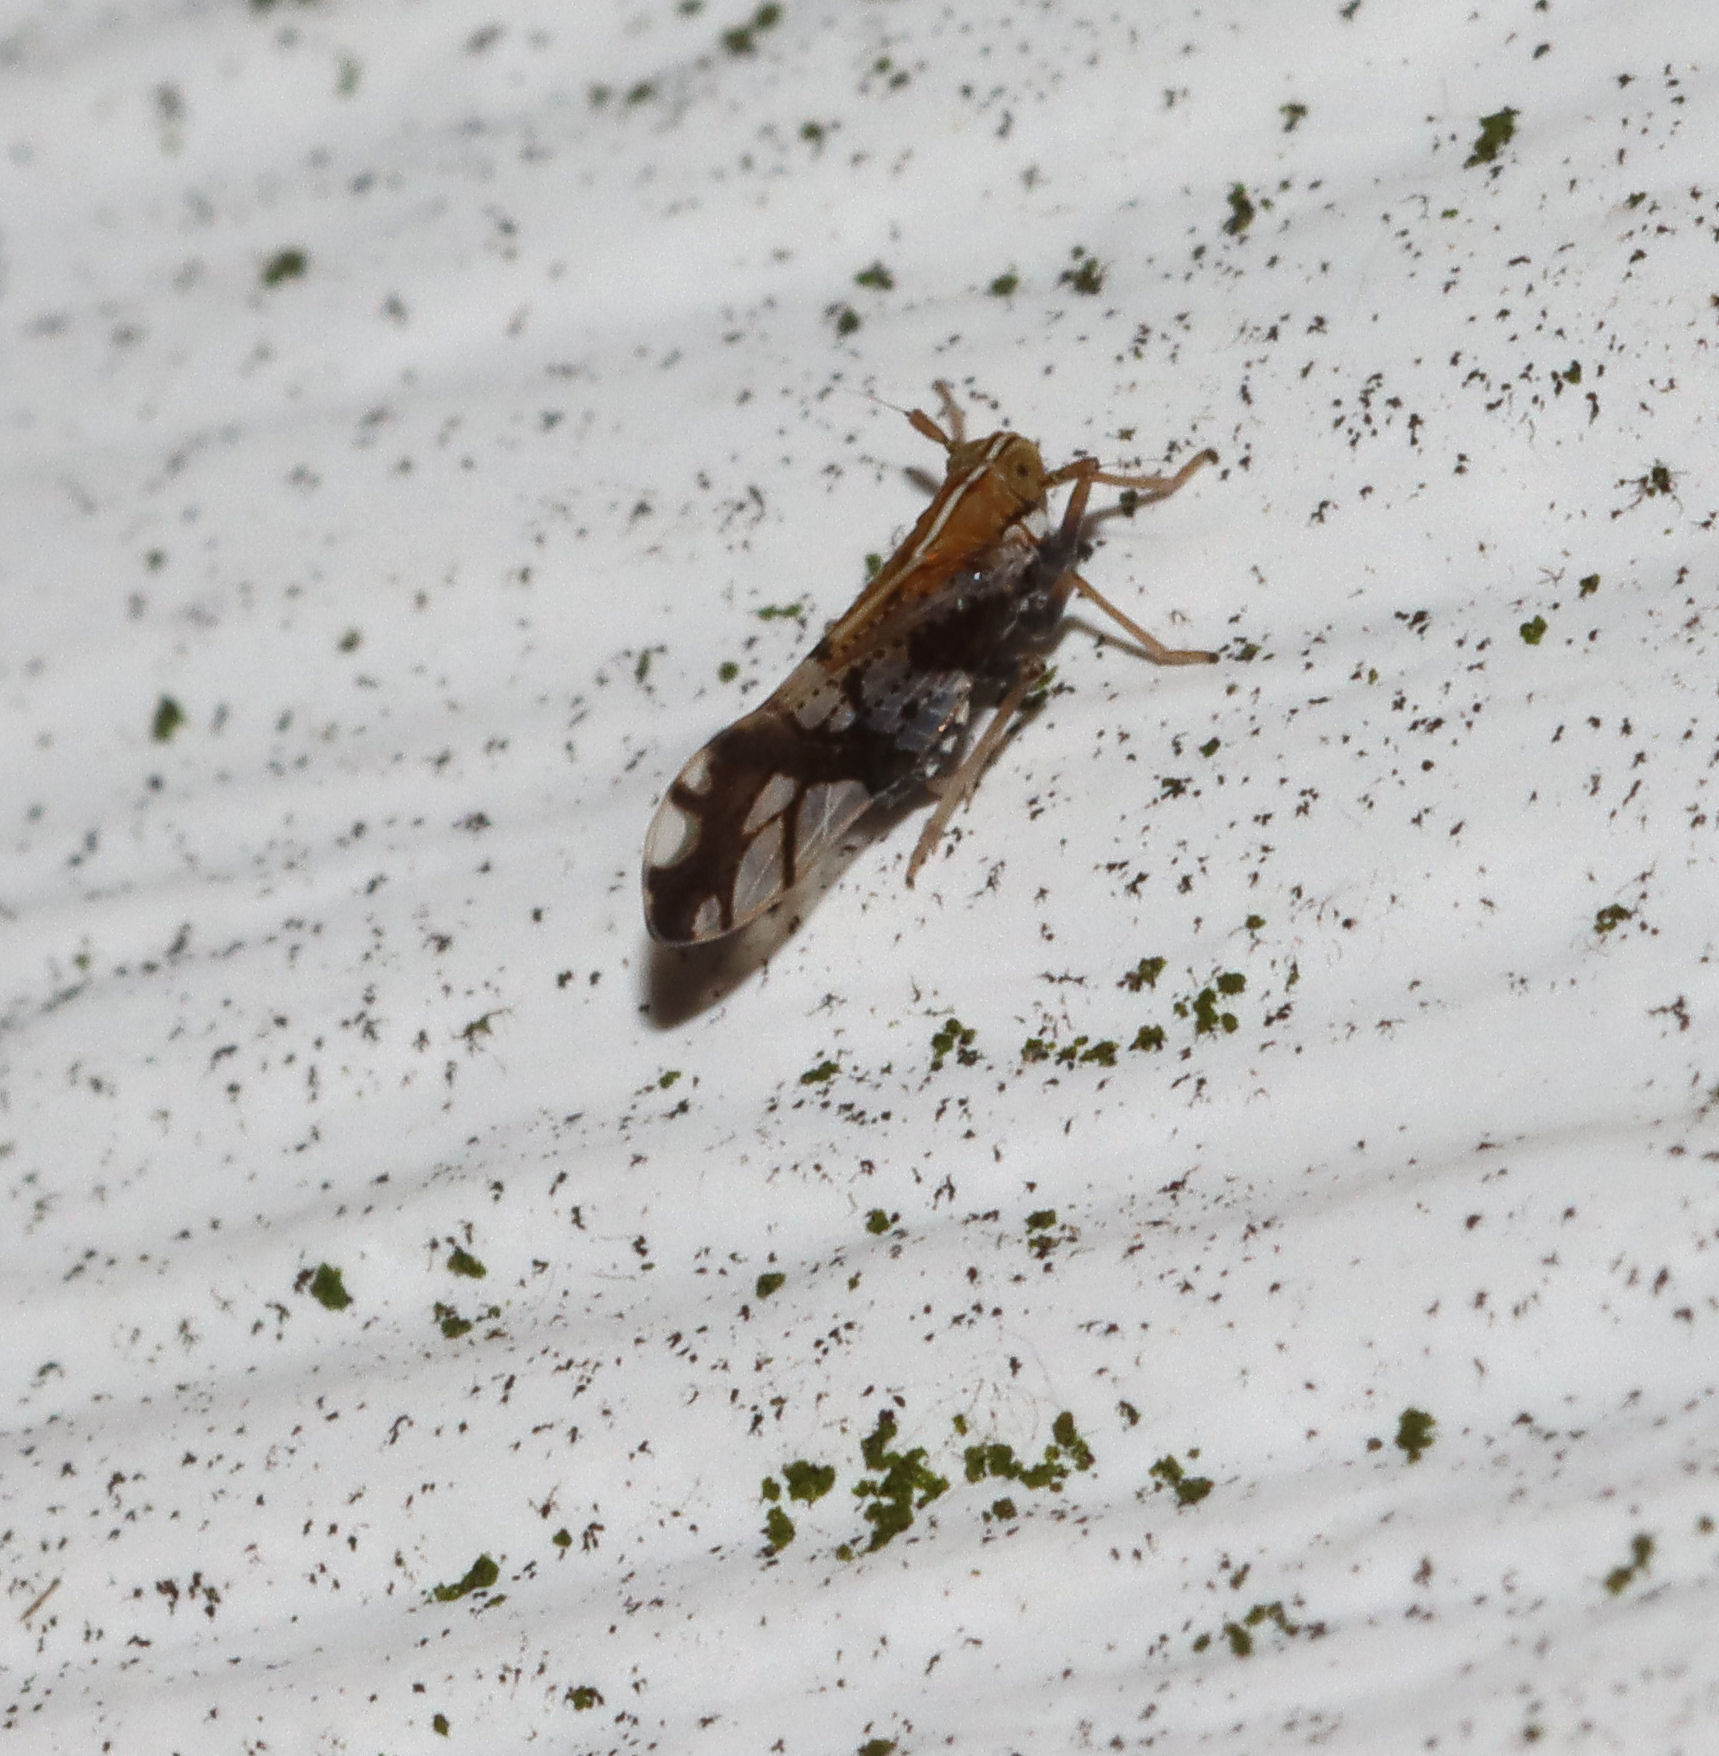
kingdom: Animalia
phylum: Arthropoda
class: Insecta
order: Hemiptera
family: Delphacidae
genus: Liburniella
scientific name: Liburniella ornata
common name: Ornate planthopper
